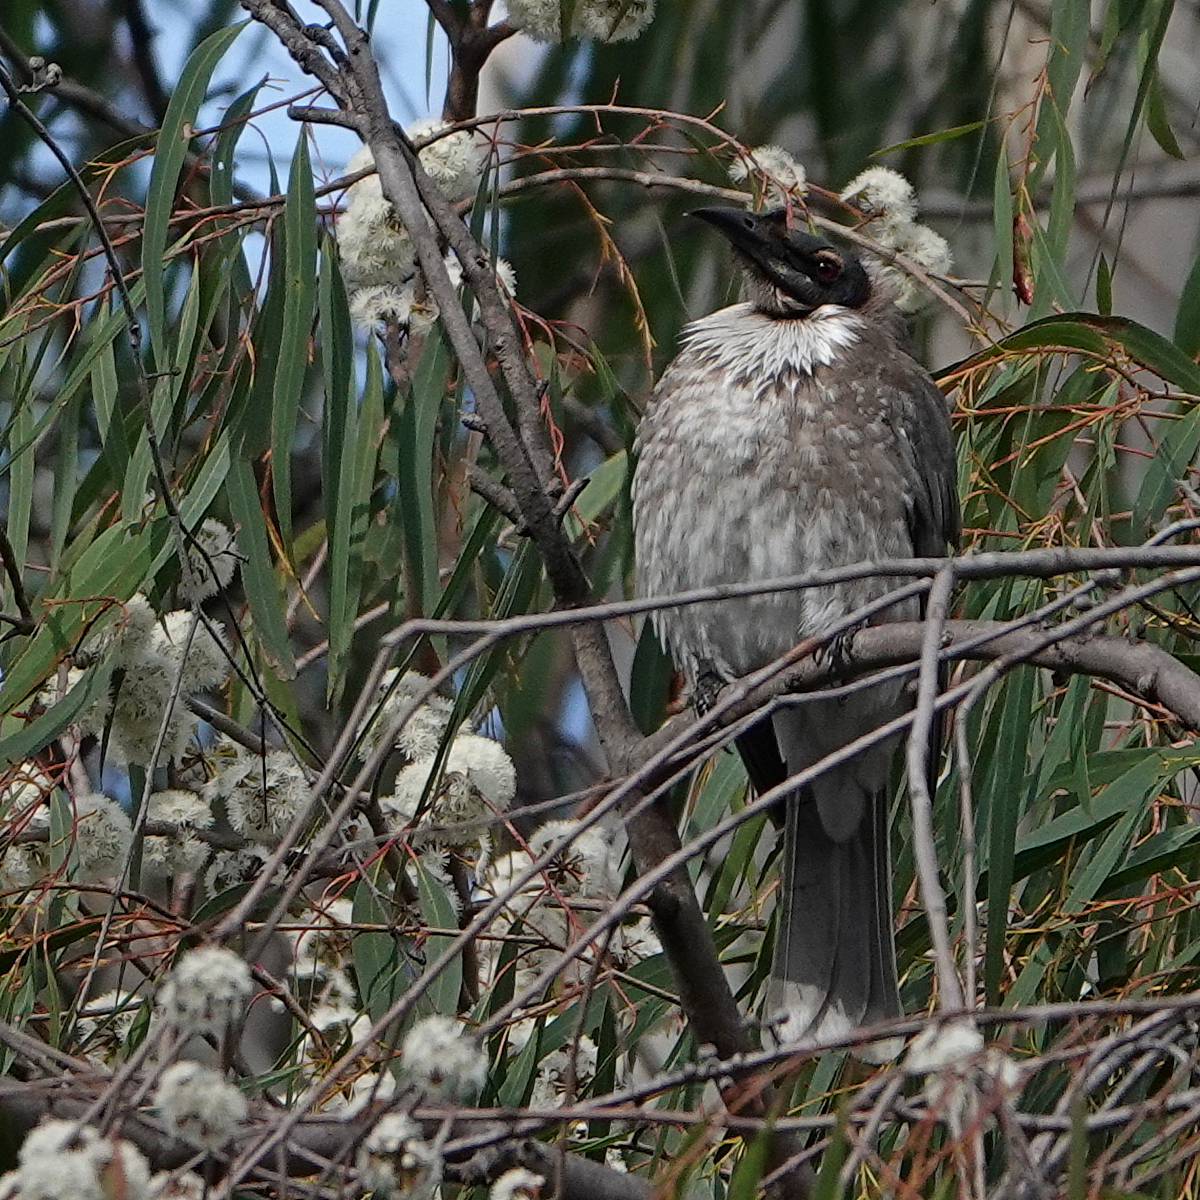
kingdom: Animalia
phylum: Chordata
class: Aves
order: Passeriformes
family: Meliphagidae
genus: Philemon
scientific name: Philemon corniculatus
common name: Noisy friarbird
